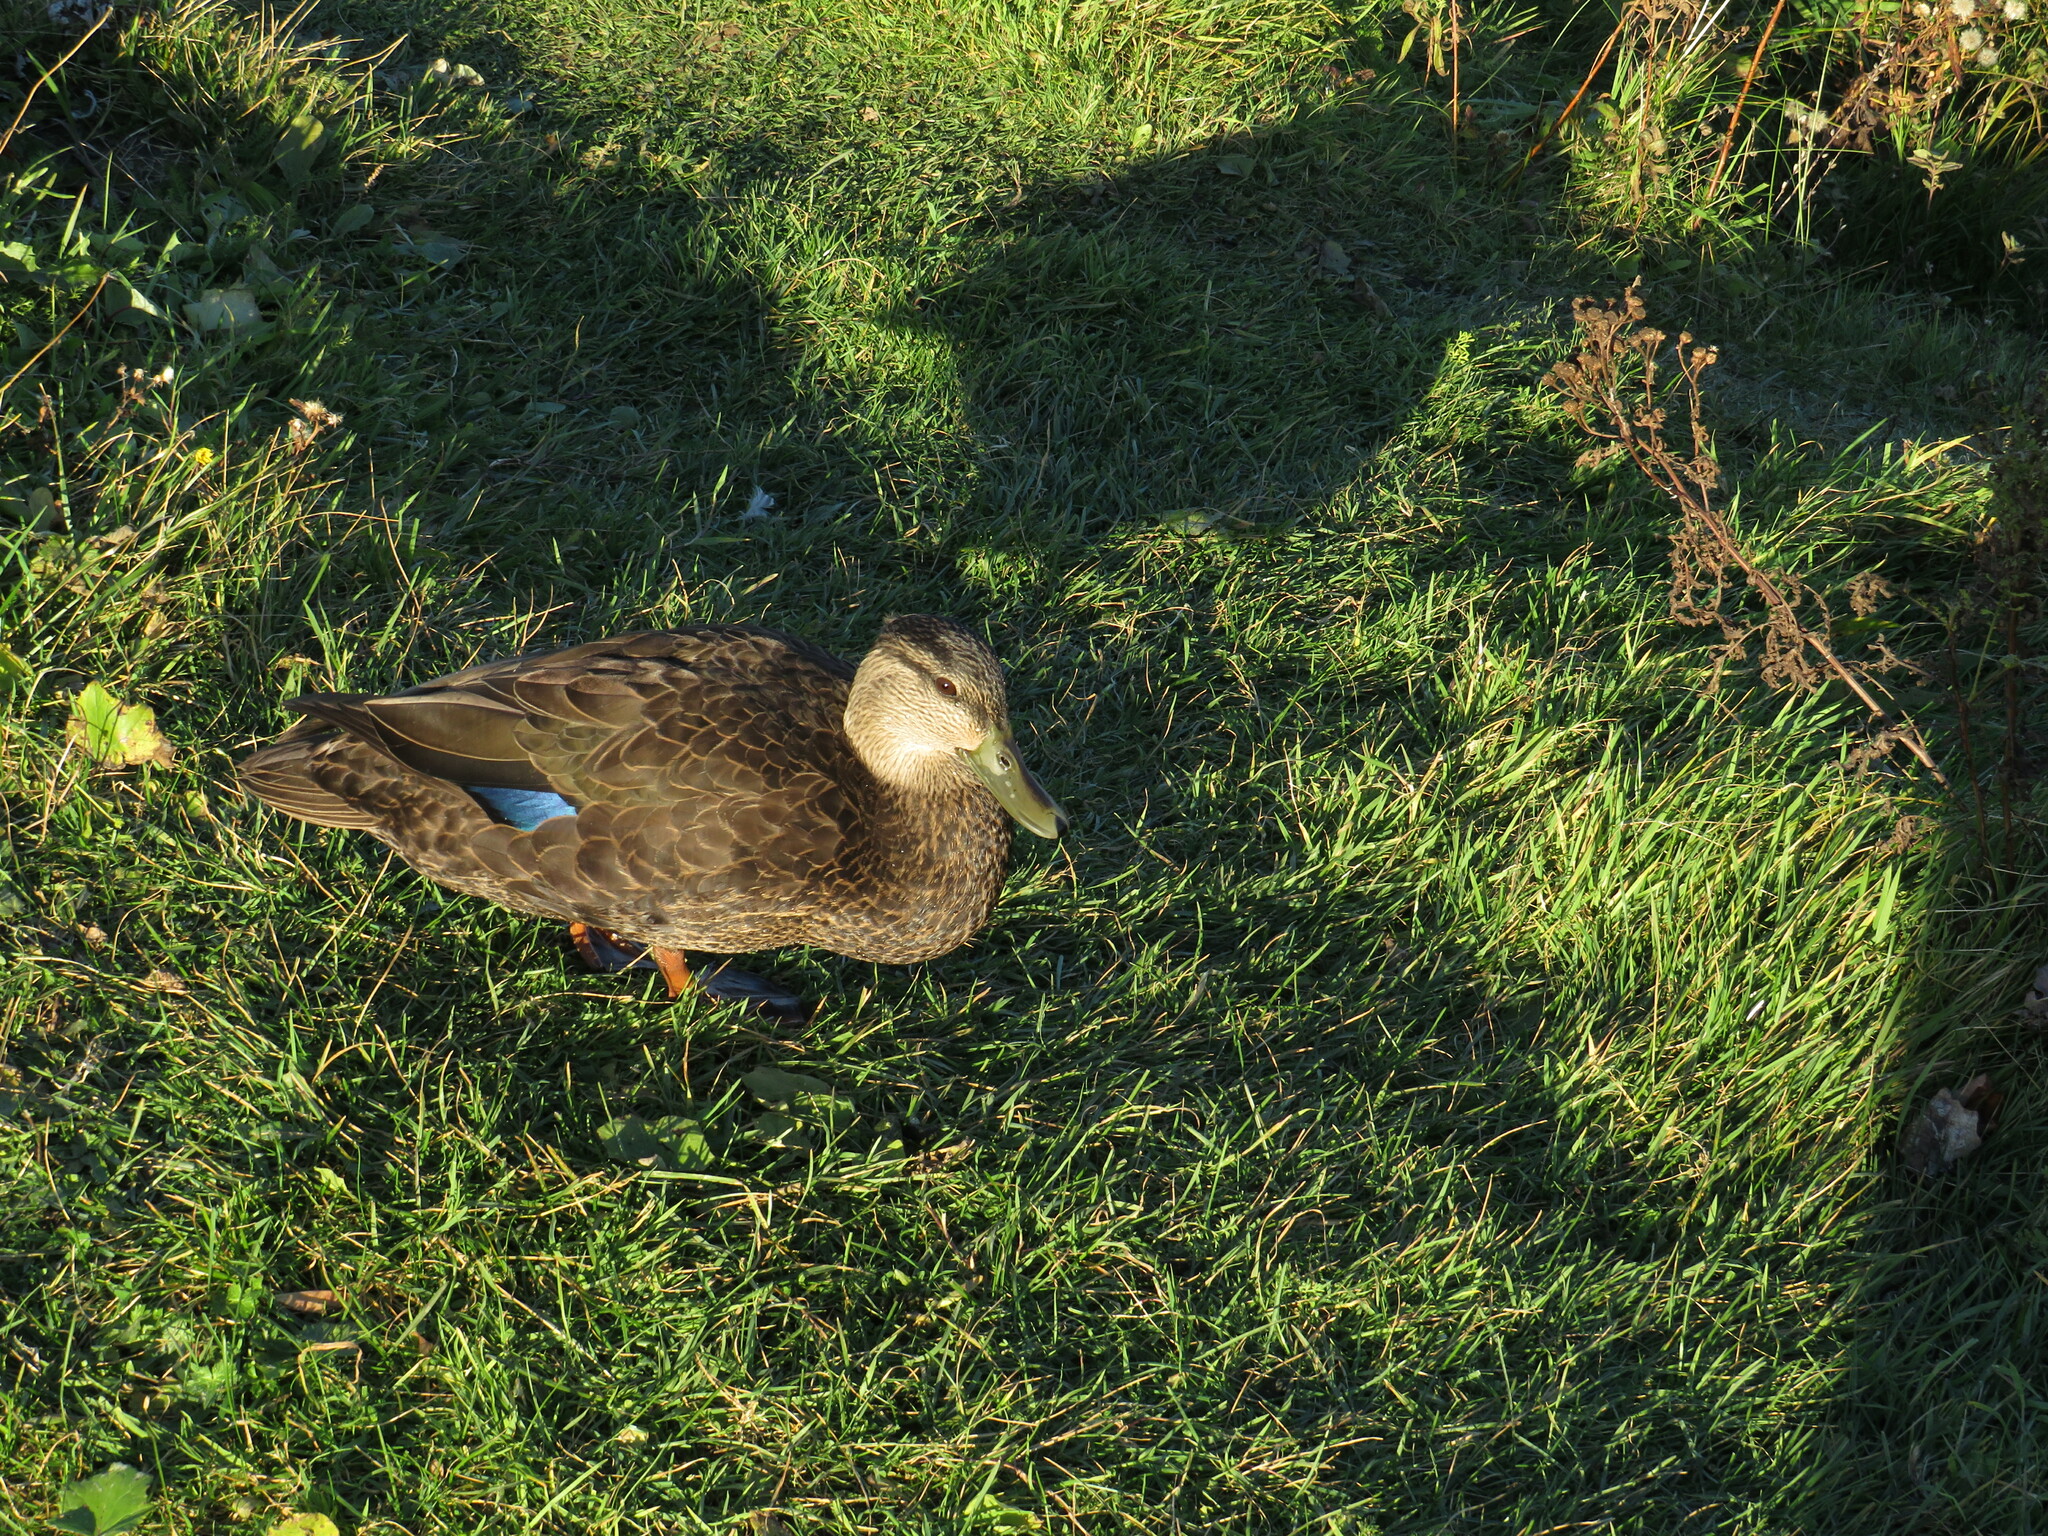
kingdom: Animalia
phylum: Chordata
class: Aves
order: Anseriformes
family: Anatidae
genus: Anas
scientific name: Anas rubripes
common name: American black duck
